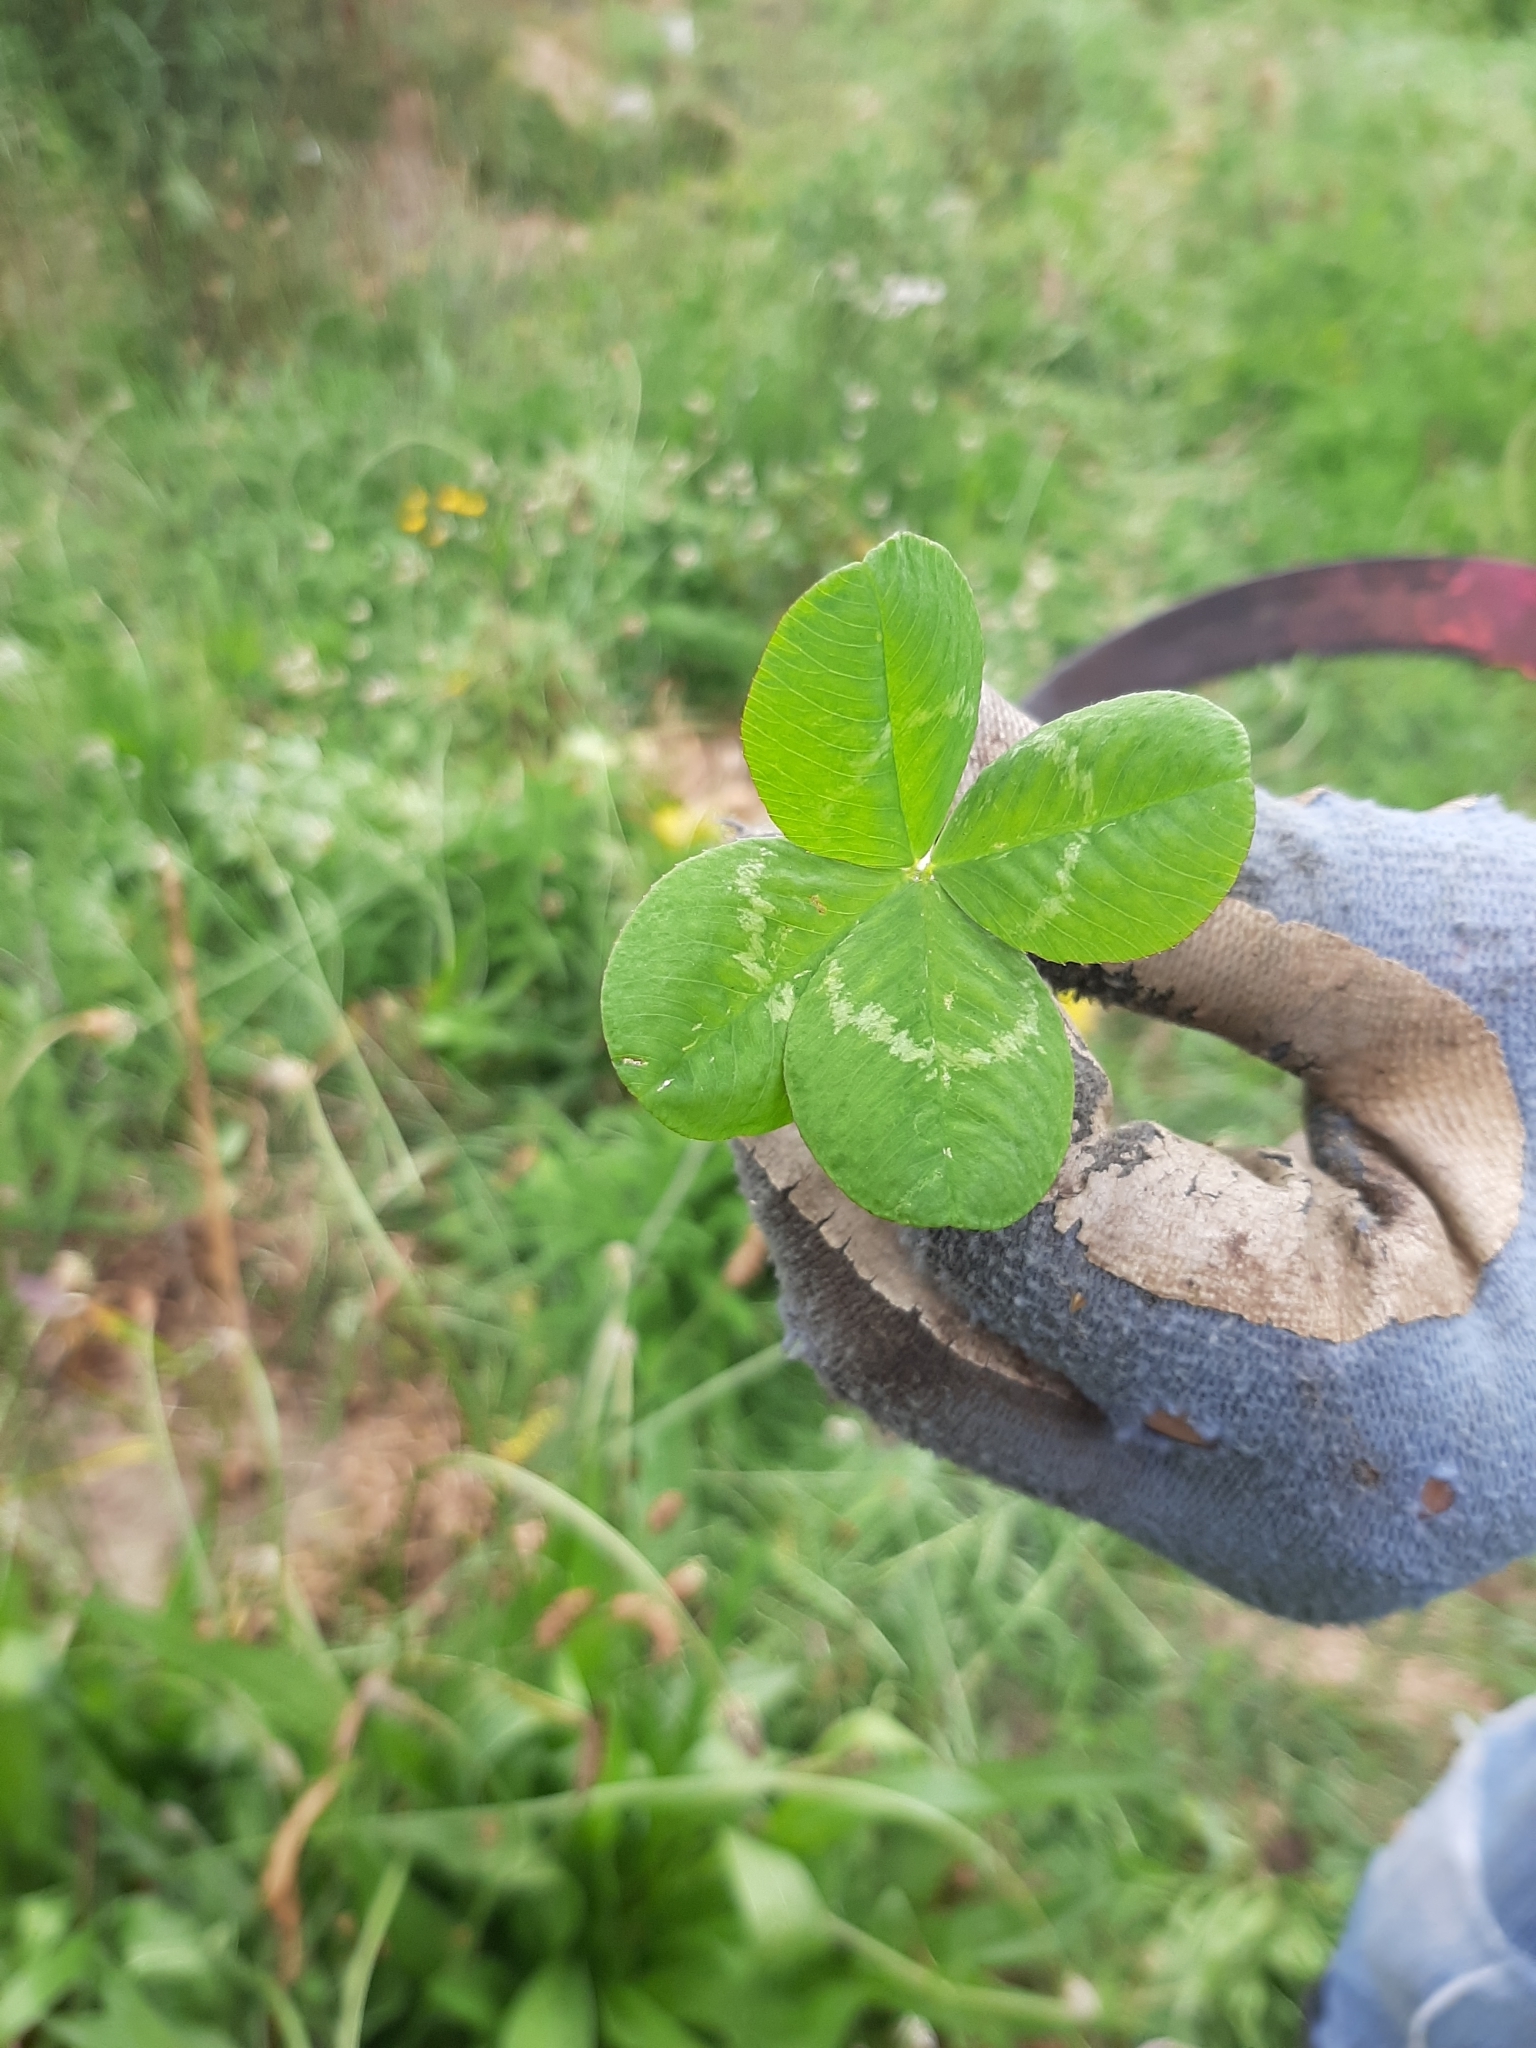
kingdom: Plantae
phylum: Tracheophyta
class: Magnoliopsida
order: Fabales
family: Fabaceae
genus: Trifolium
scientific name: Trifolium repens
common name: White clover
